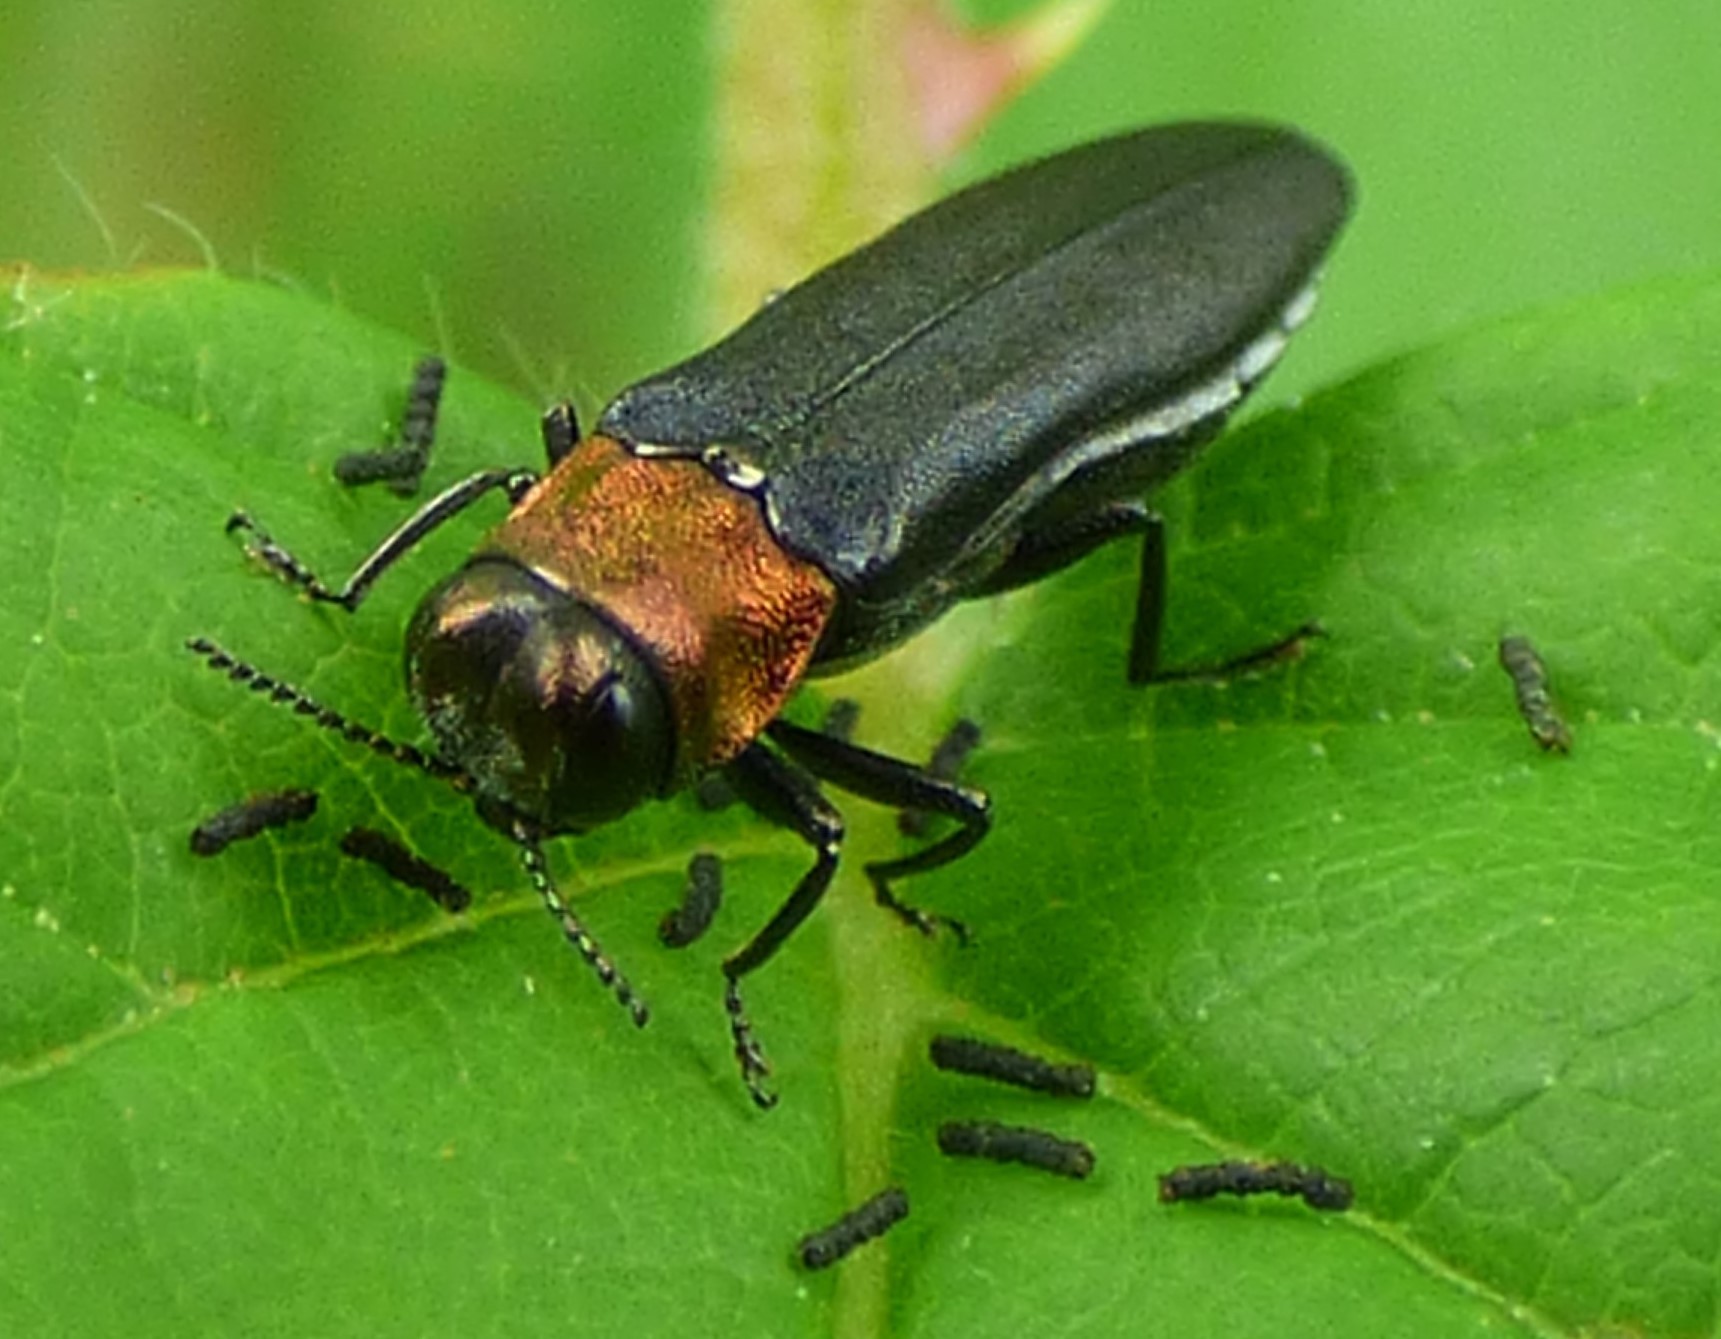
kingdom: Animalia
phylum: Arthropoda
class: Insecta
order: Coleoptera
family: Buprestidae
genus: Agrilus
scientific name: Agrilus ruficollis
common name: Red-necked cane borer beetle
